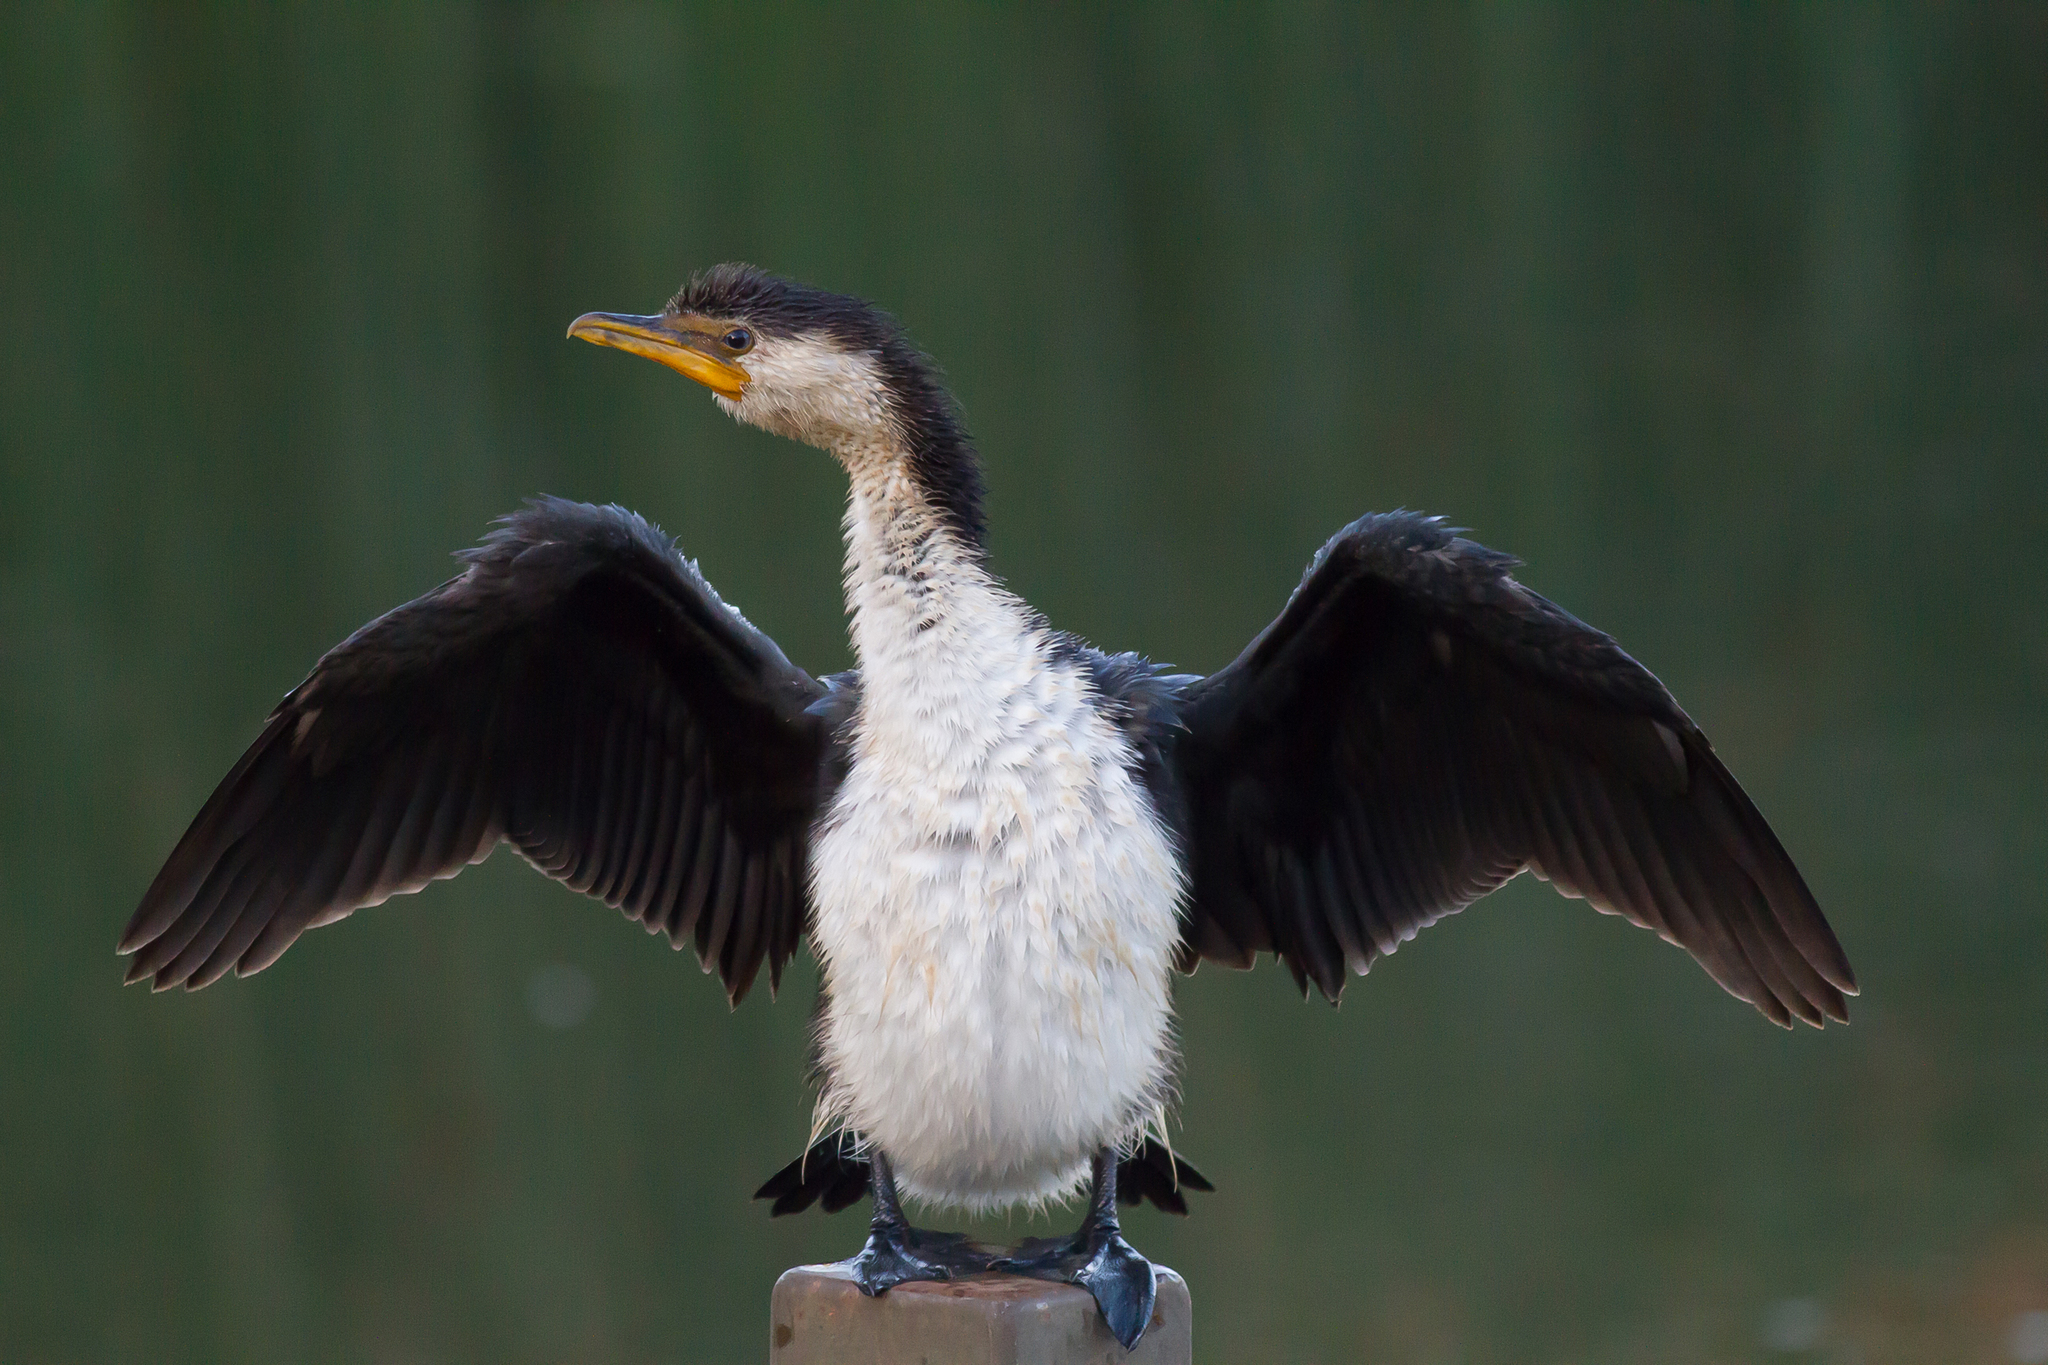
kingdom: Animalia
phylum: Chordata
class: Aves
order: Suliformes
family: Phalacrocoracidae
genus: Microcarbo
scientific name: Microcarbo melanoleucos
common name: Little pied cormorant
